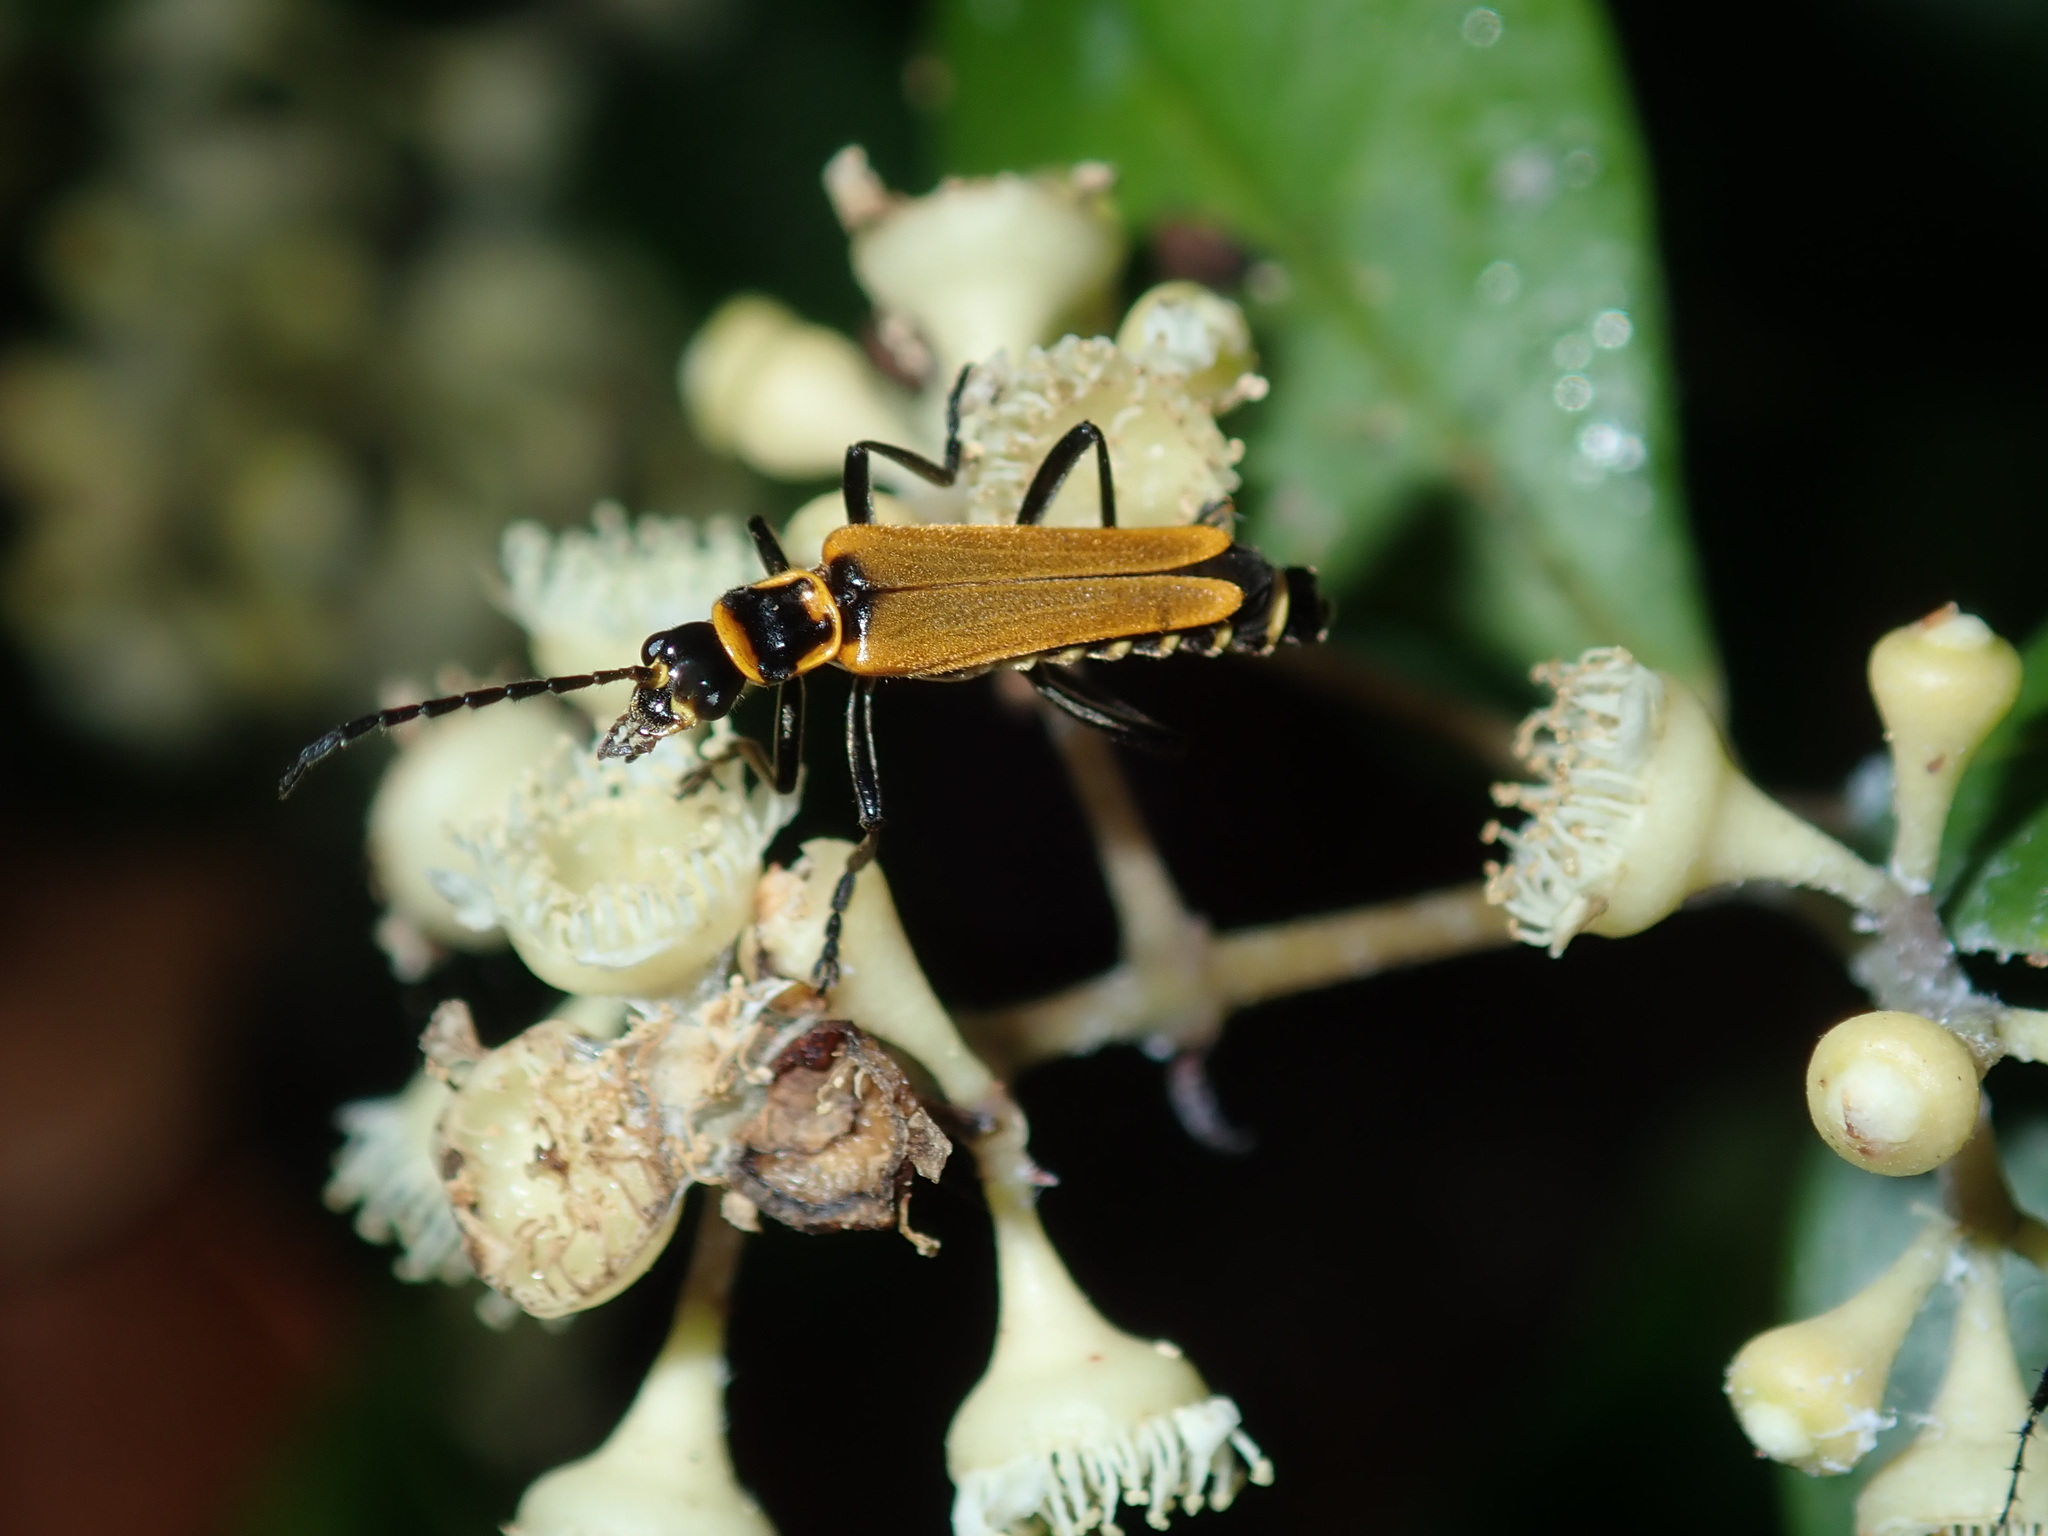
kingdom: Animalia
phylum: Arthropoda
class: Insecta
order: Coleoptera
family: Cantharidae
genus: Chauliognathus
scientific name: Chauliognathus
